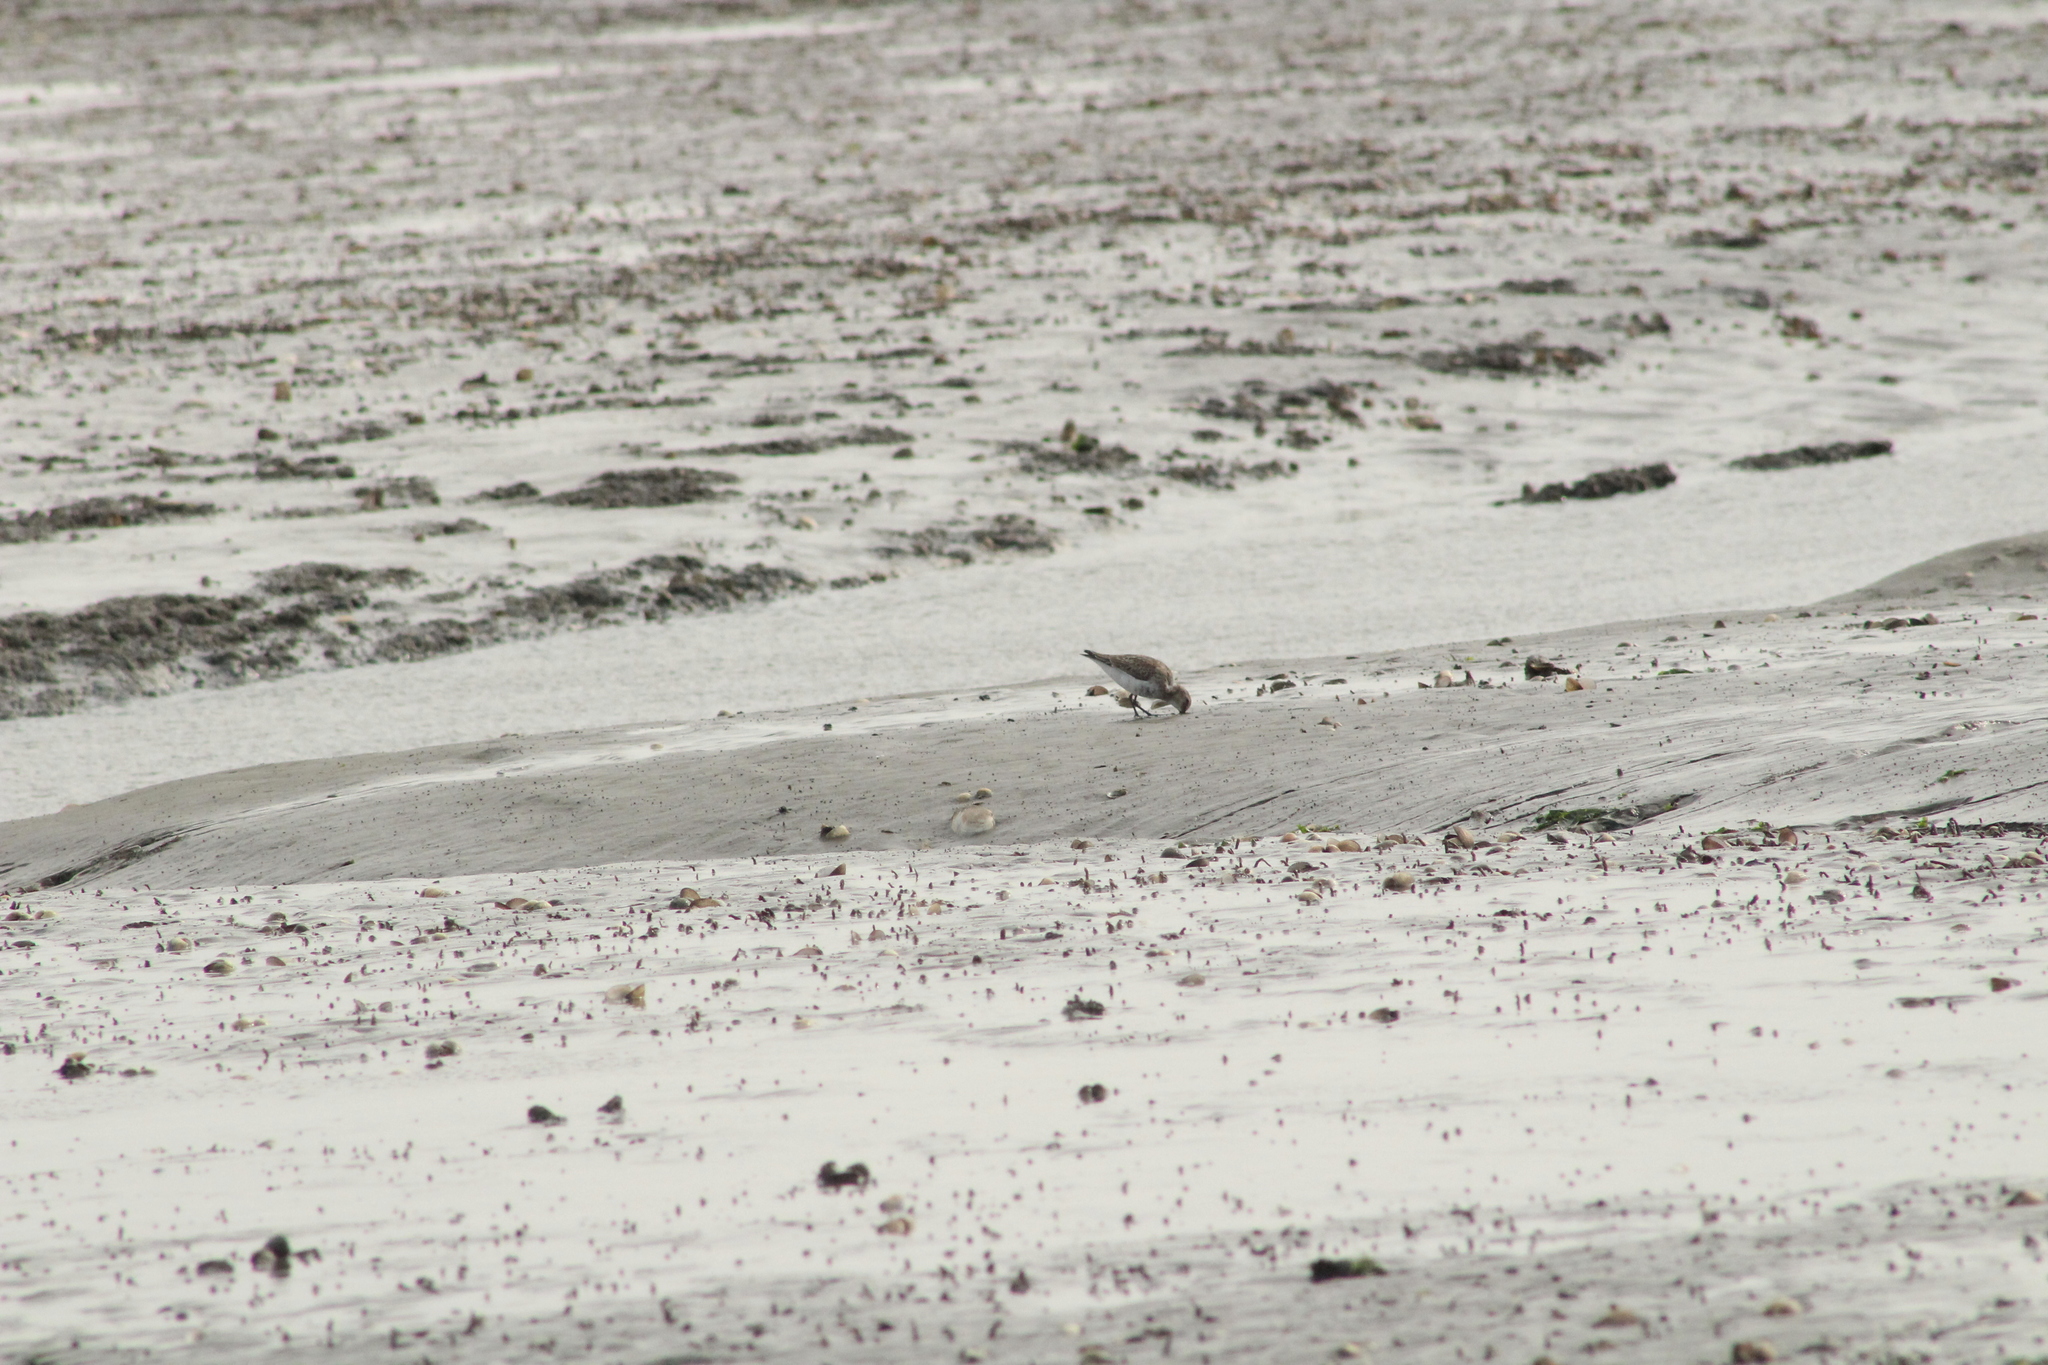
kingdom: Animalia
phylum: Chordata
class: Aves
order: Charadriiformes
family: Scolopacidae
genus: Calidris
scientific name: Calidris alpina
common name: Dunlin
